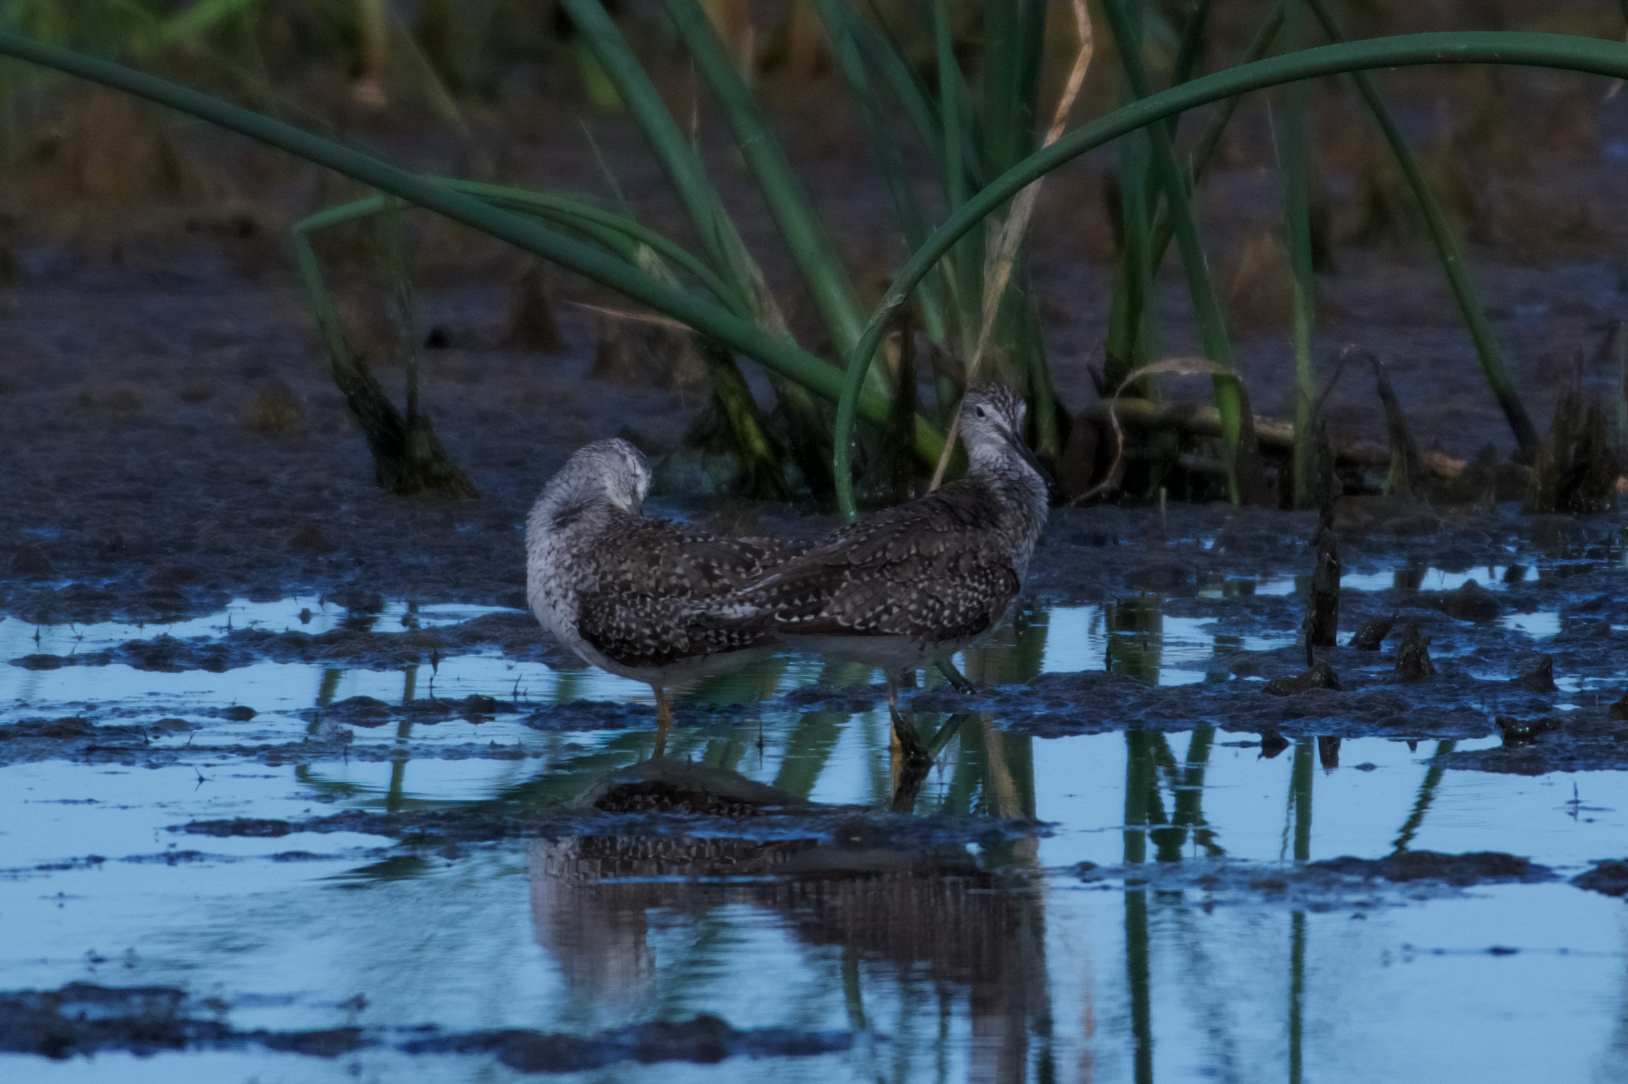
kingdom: Animalia
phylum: Chordata
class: Aves
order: Charadriiformes
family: Scolopacidae
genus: Tringa
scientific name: Tringa melanoleuca
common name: Greater yellowlegs
